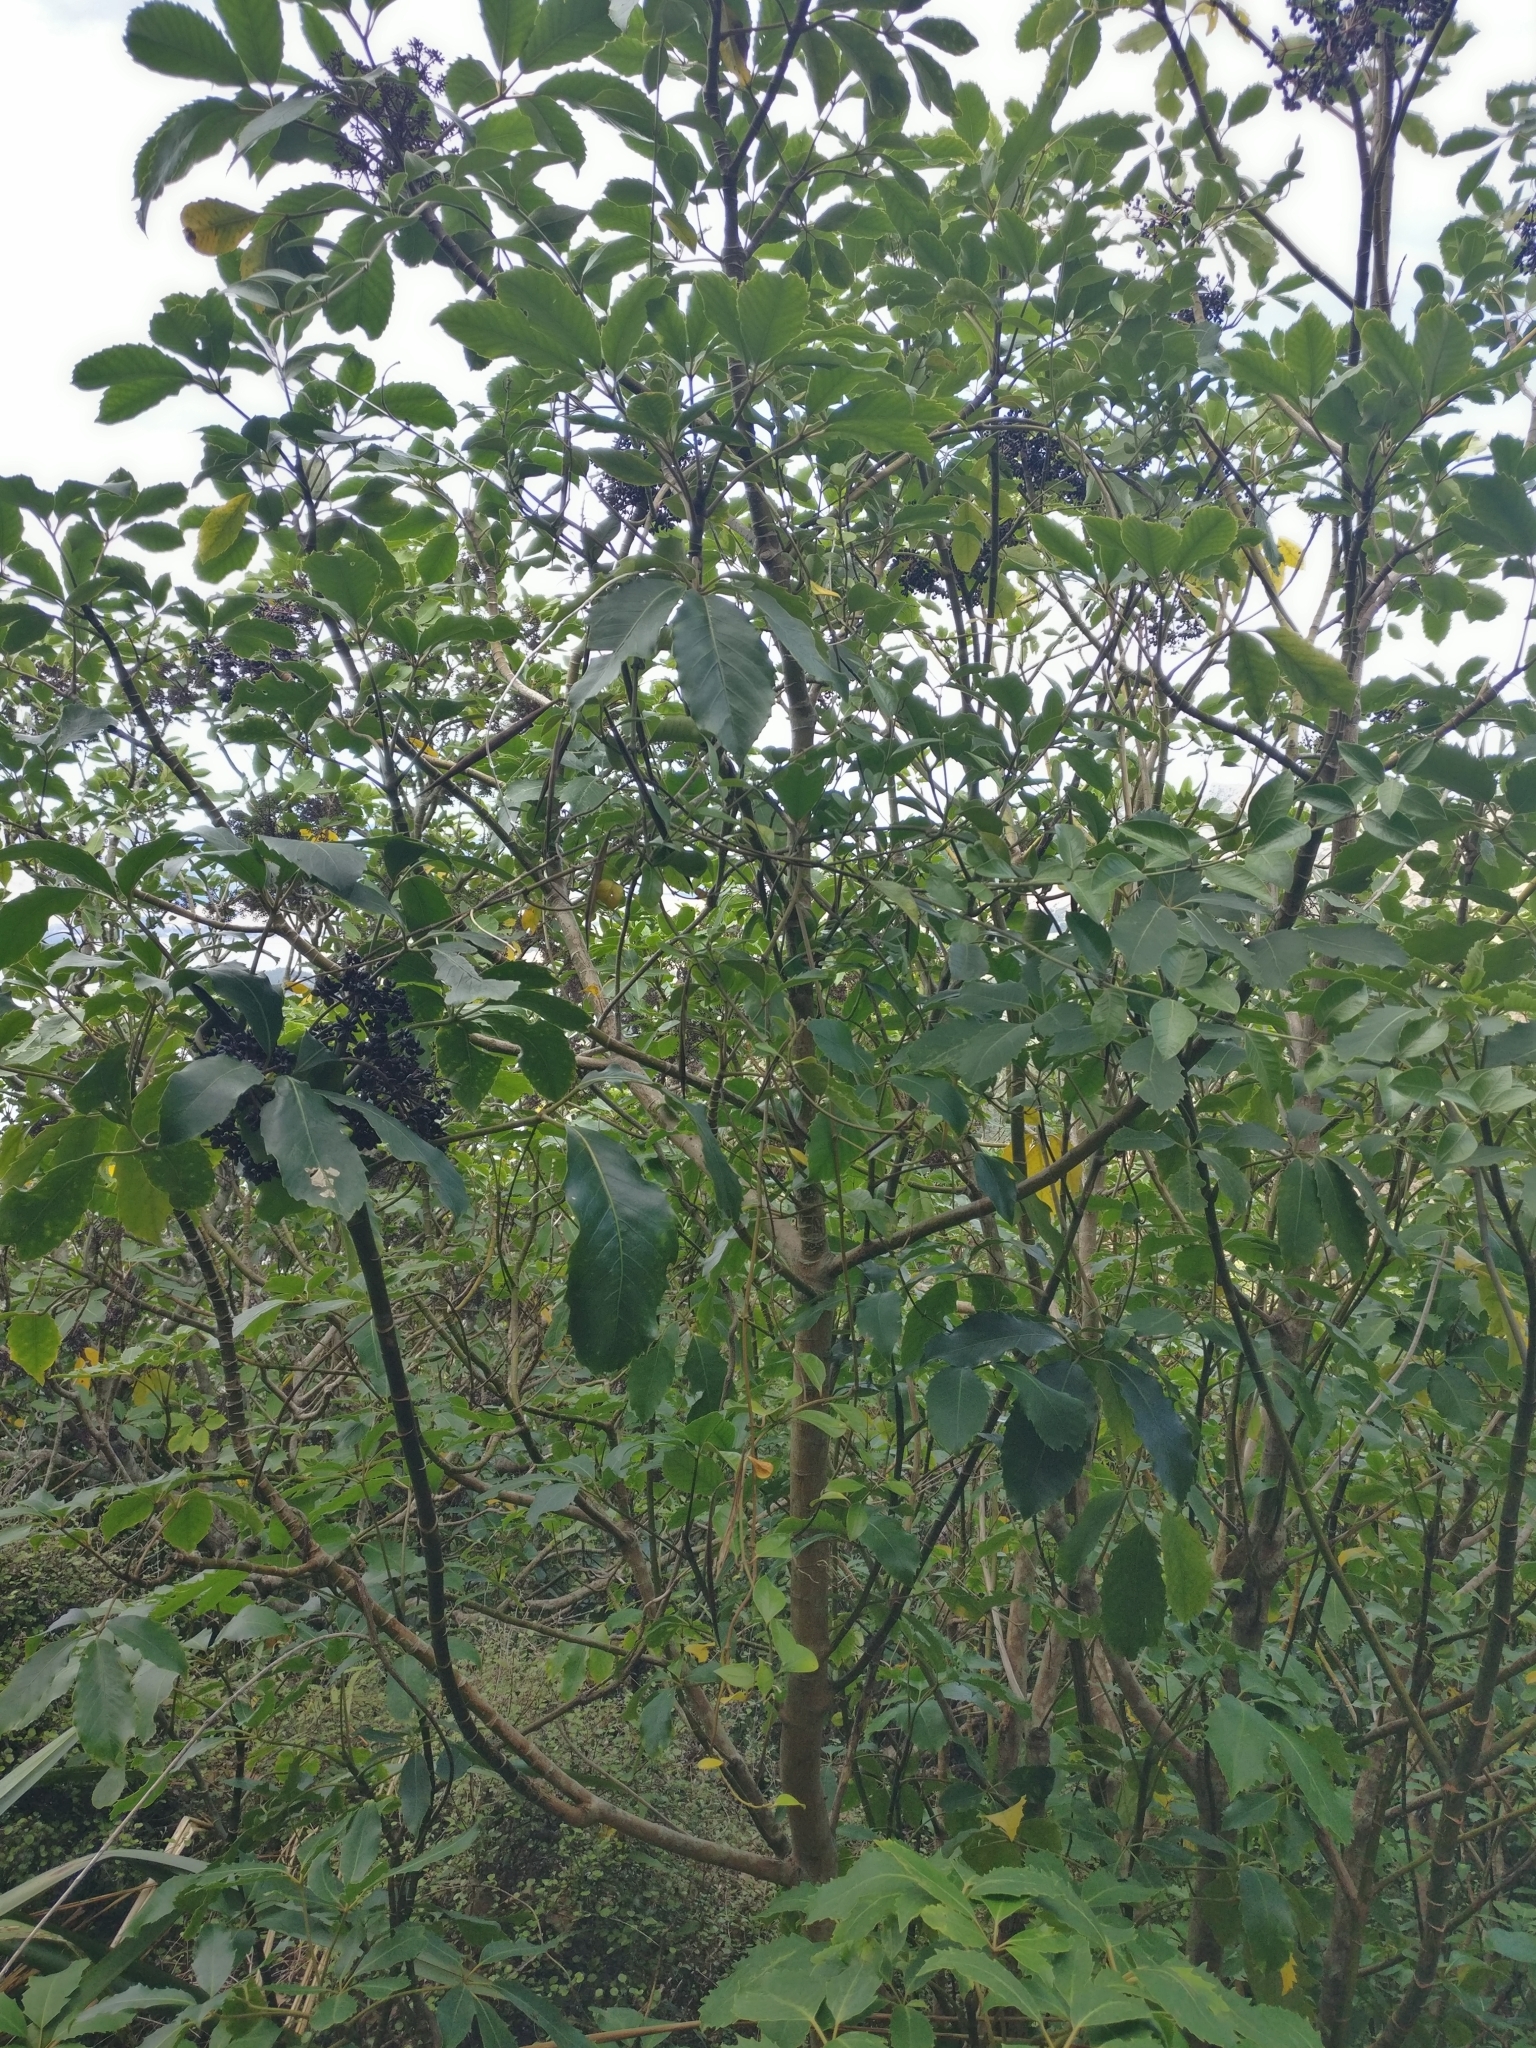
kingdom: Plantae
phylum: Tracheophyta
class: Magnoliopsida
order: Apiales
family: Araliaceae
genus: Neopanax
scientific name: Neopanax arboreus
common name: Five-fingers
